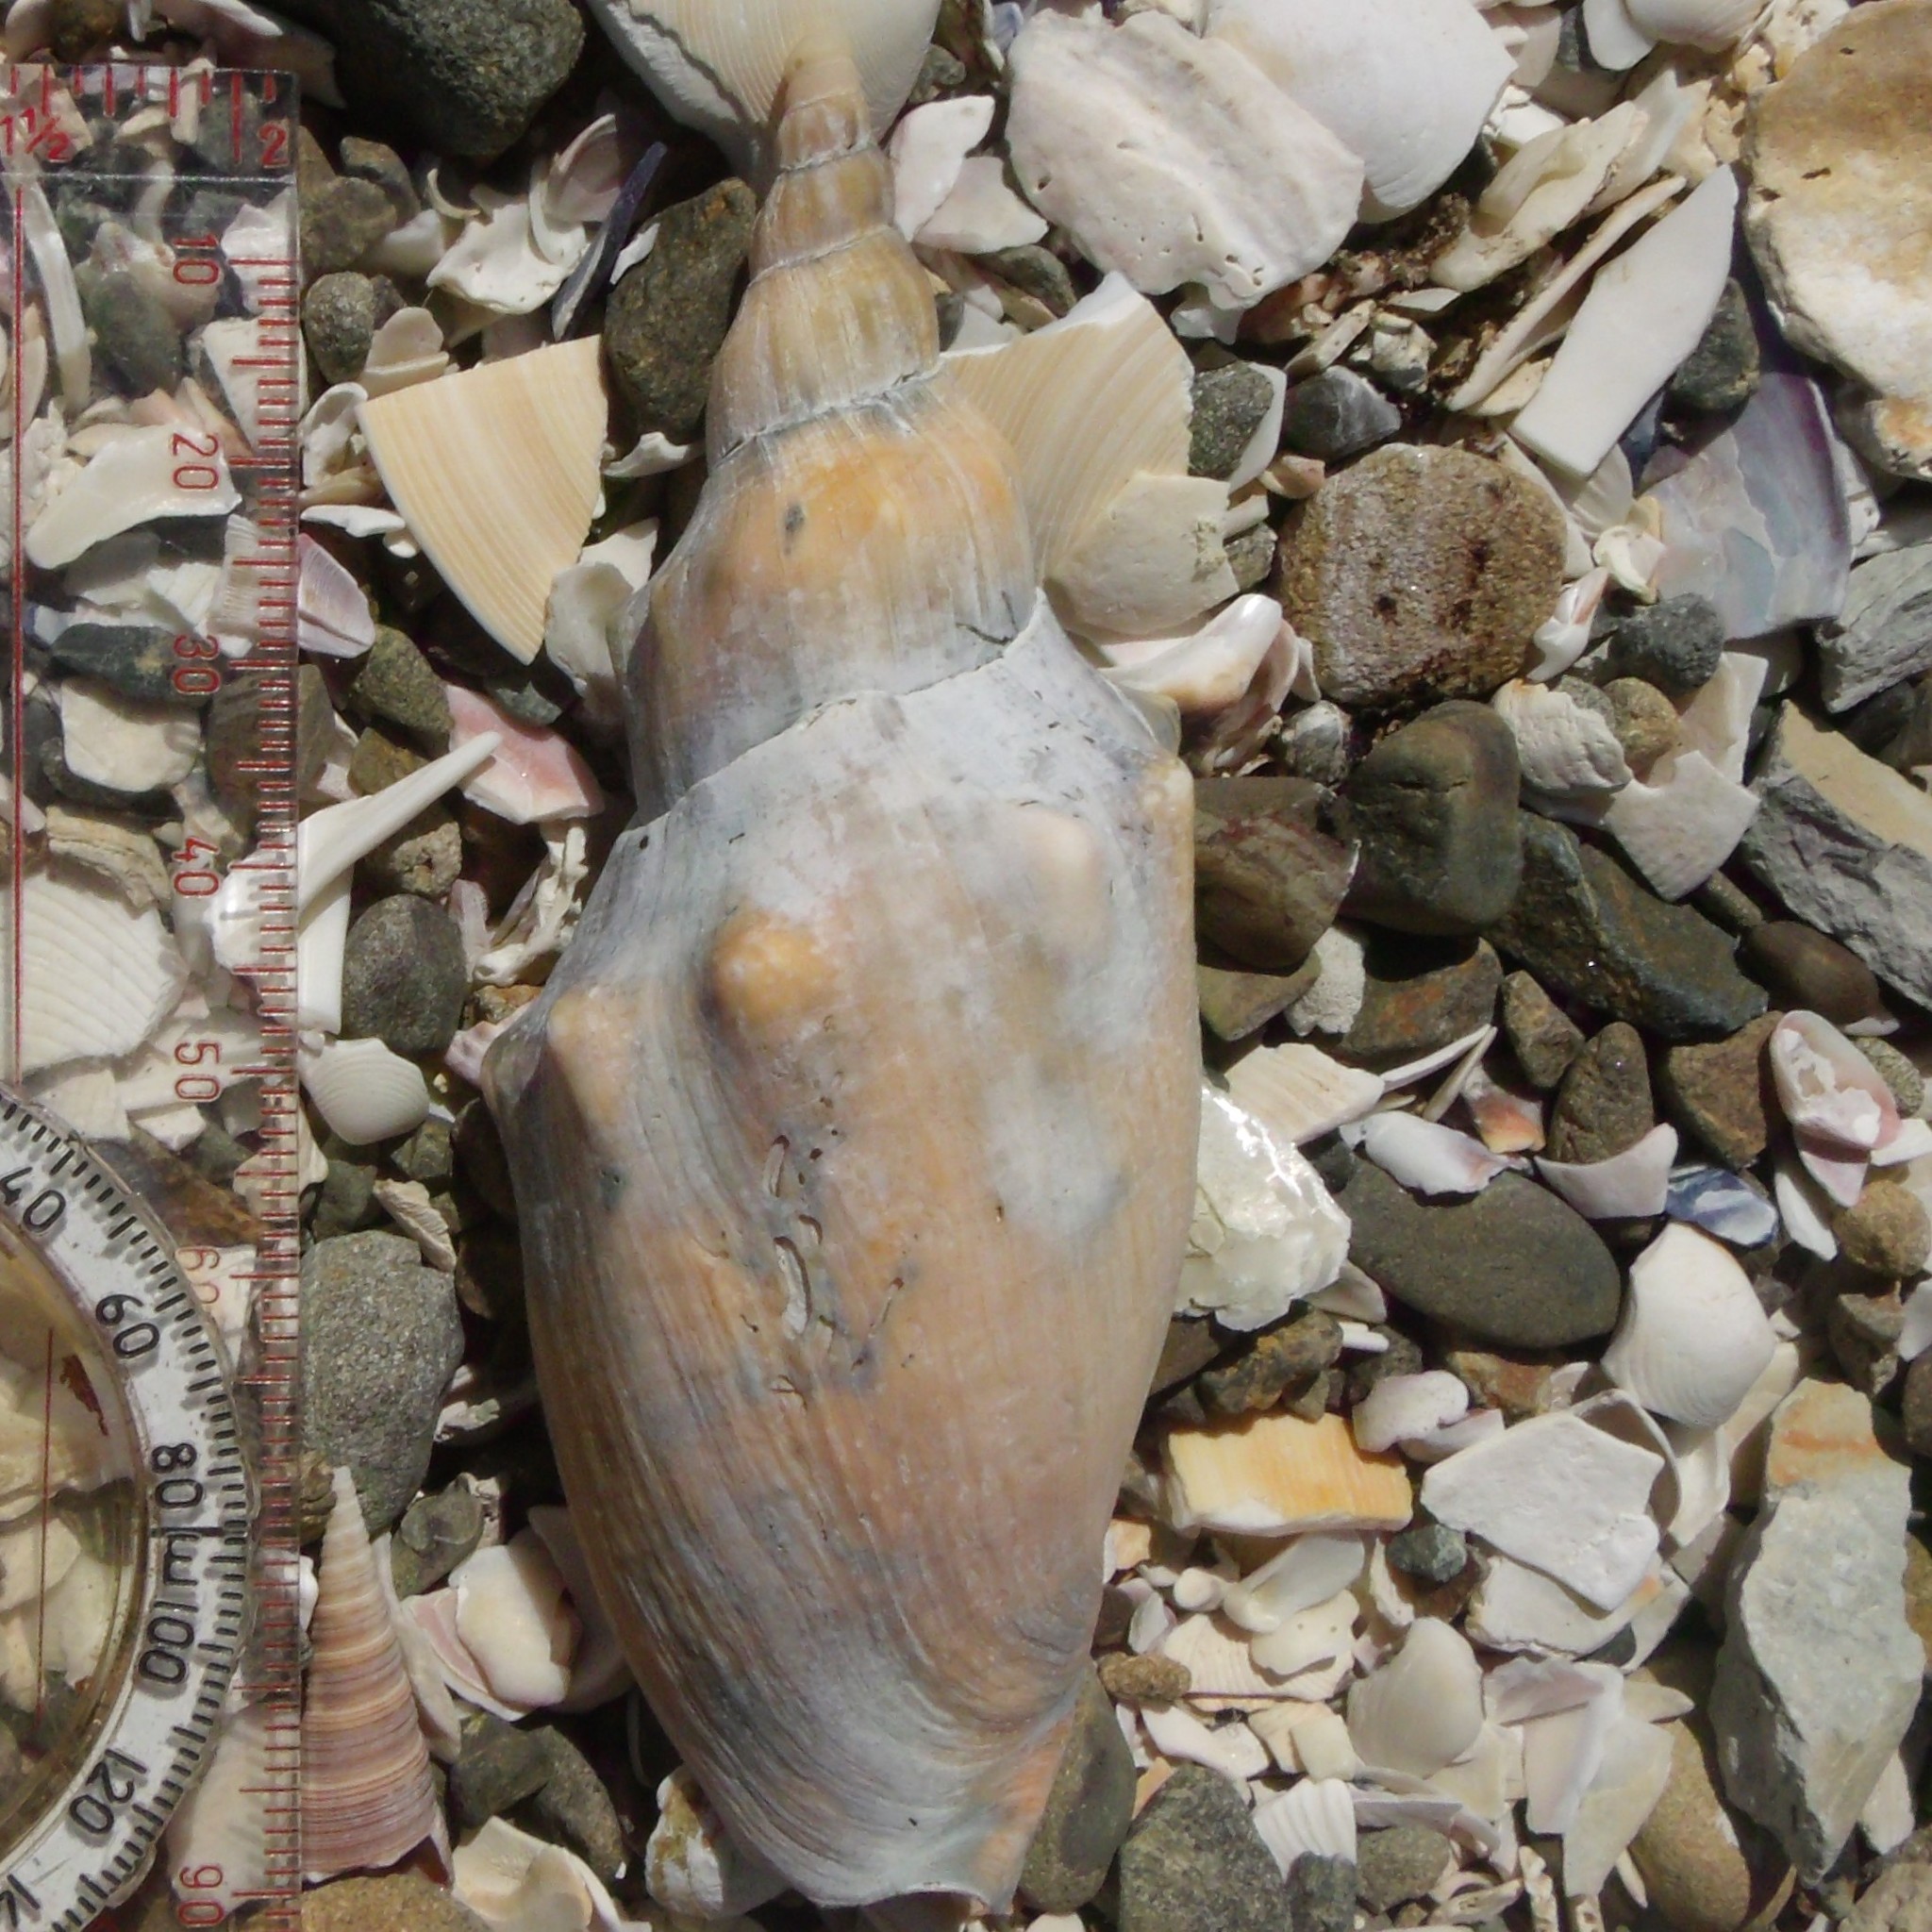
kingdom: Animalia
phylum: Mollusca
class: Gastropoda
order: Neogastropoda
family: Volutidae
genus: Alcithoe
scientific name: Alcithoe arabica
